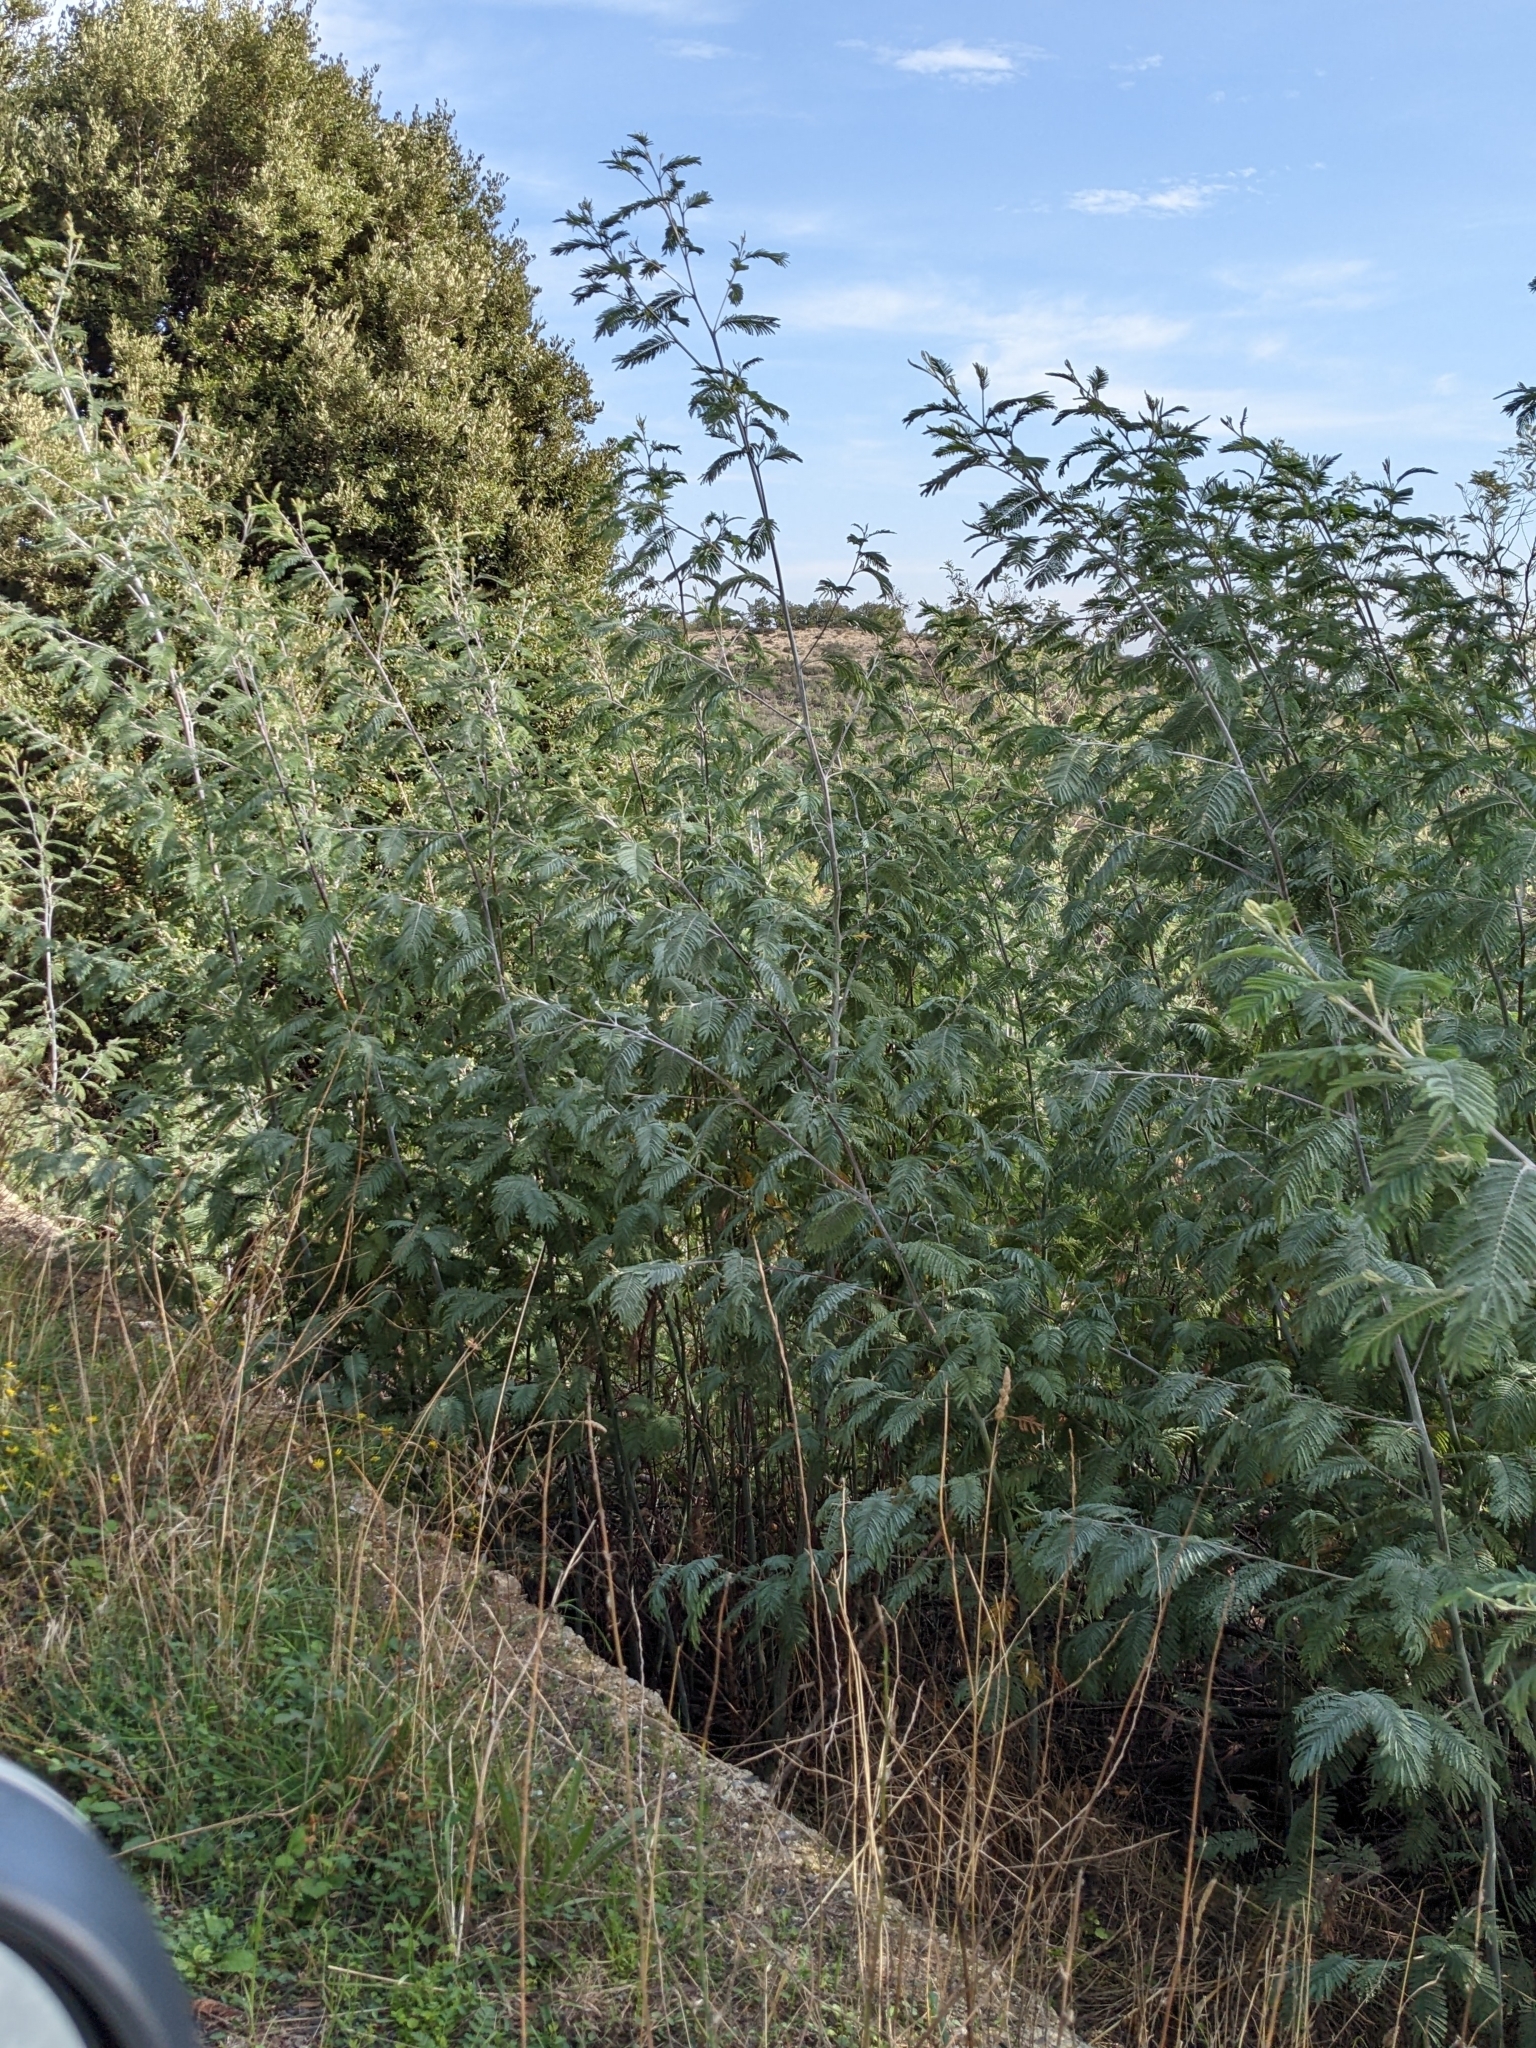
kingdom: Plantae
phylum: Tracheophyta
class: Magnoliopsida
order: Fabales
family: Fabaceae
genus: Acacia
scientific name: Acacia dealbata
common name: Silver wattle
